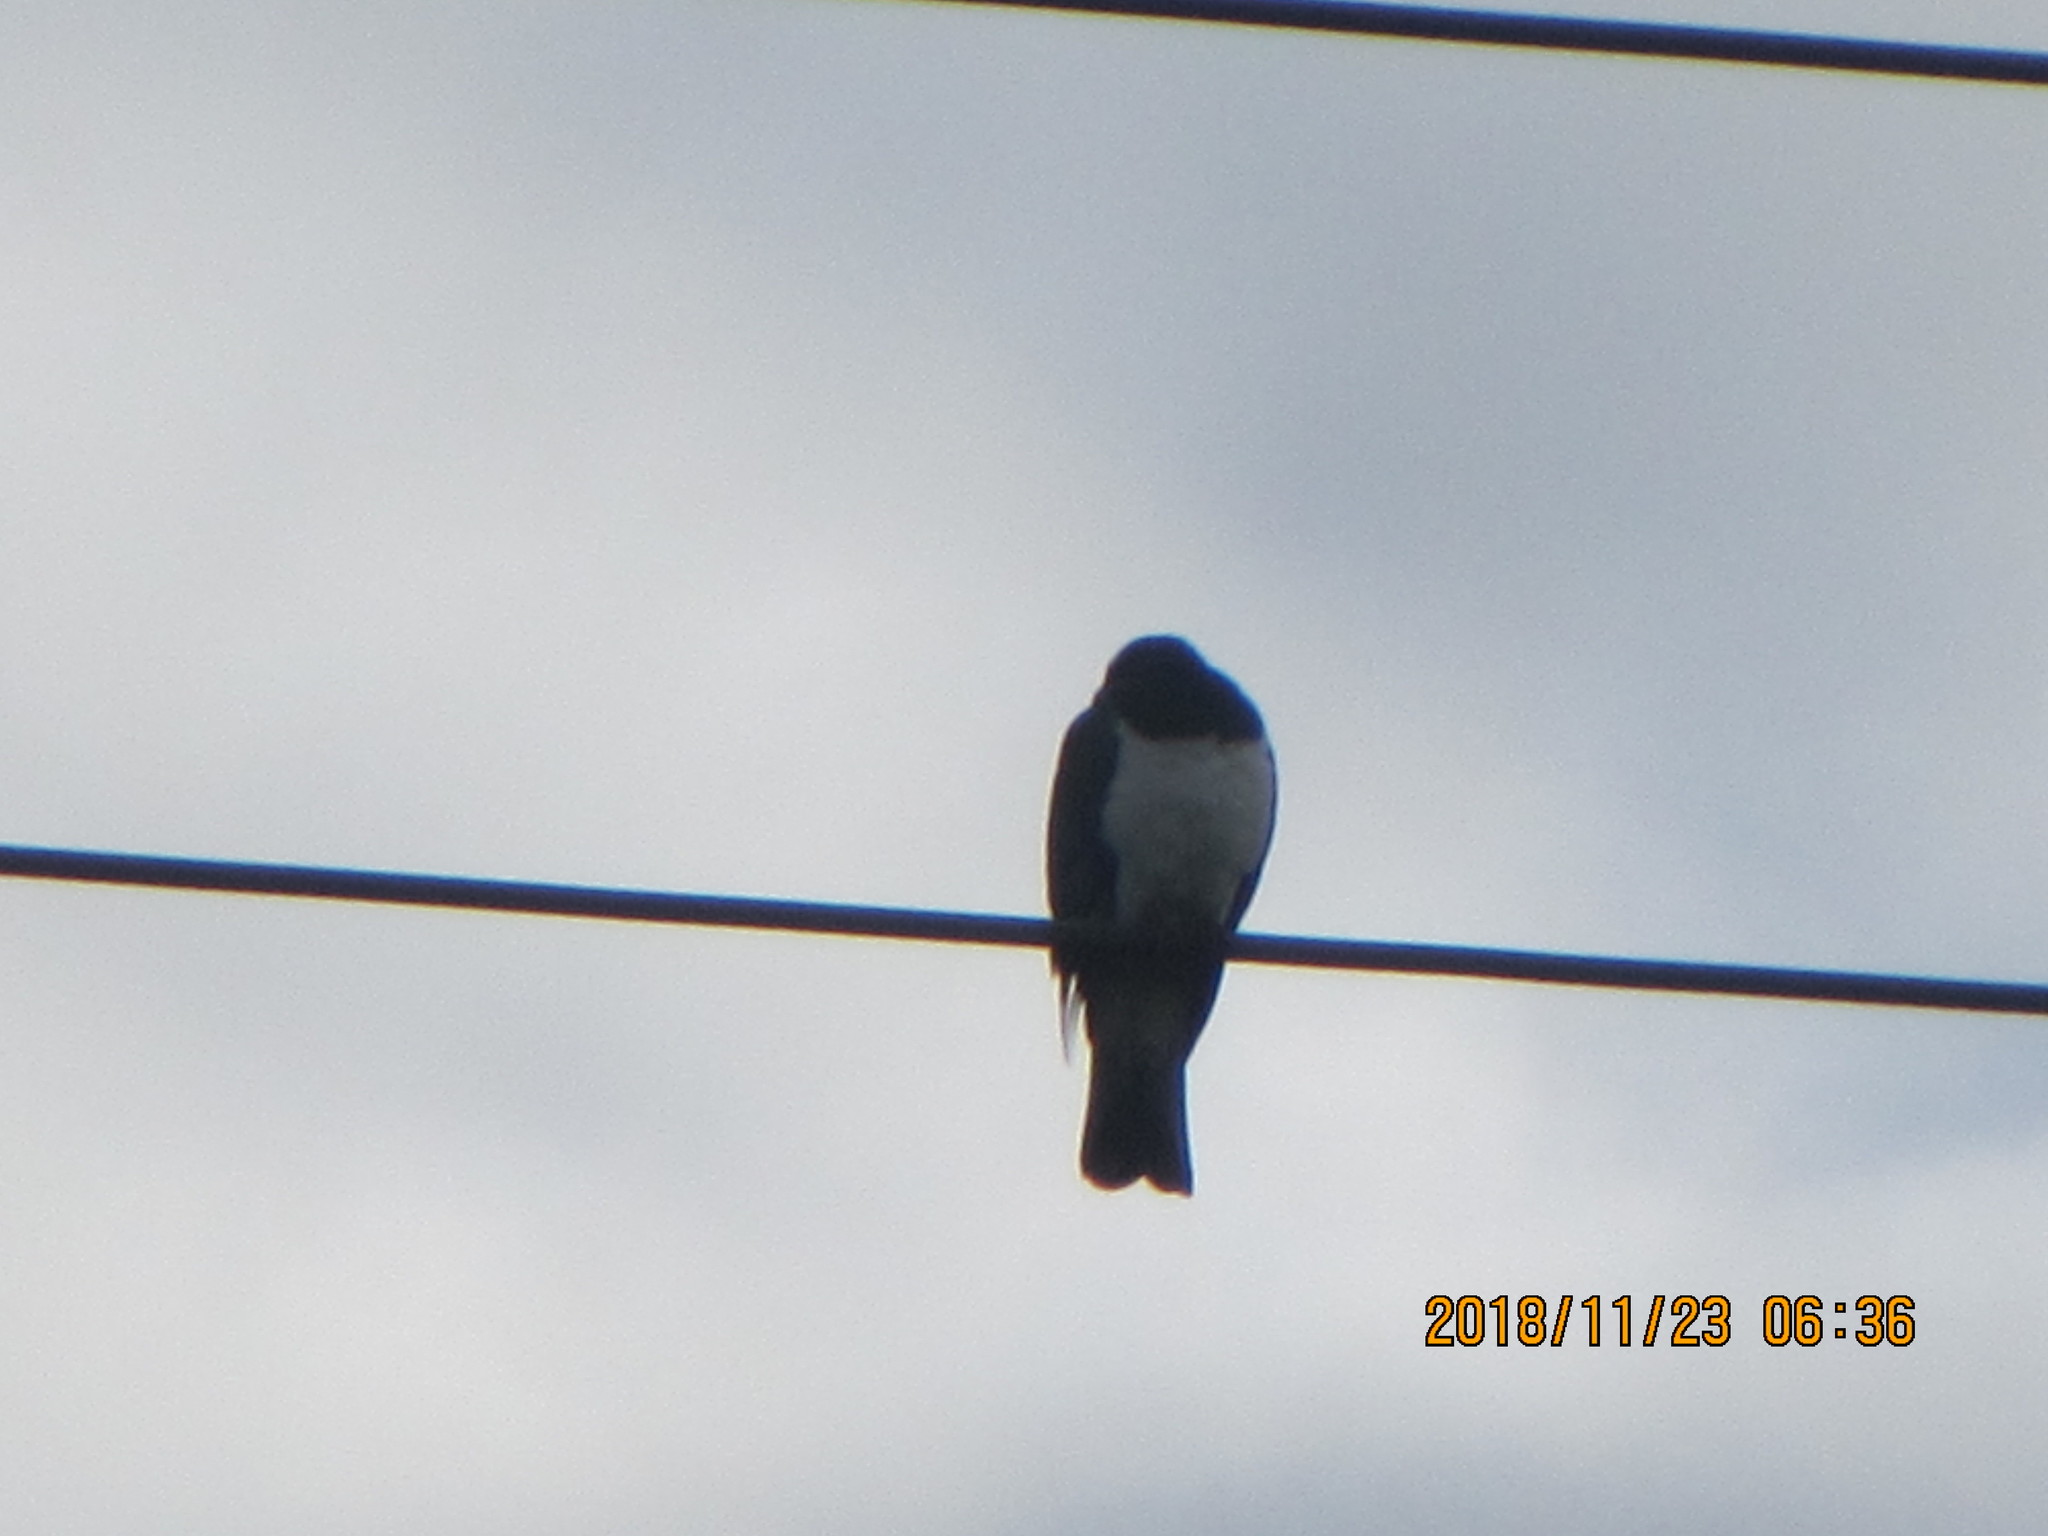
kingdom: Animalia
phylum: Chordata
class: Aves
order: Columbiformes
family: Columbidae
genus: Hemiphaga
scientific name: Hemiphaga novaeseelandiae
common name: New zealand pigeon
